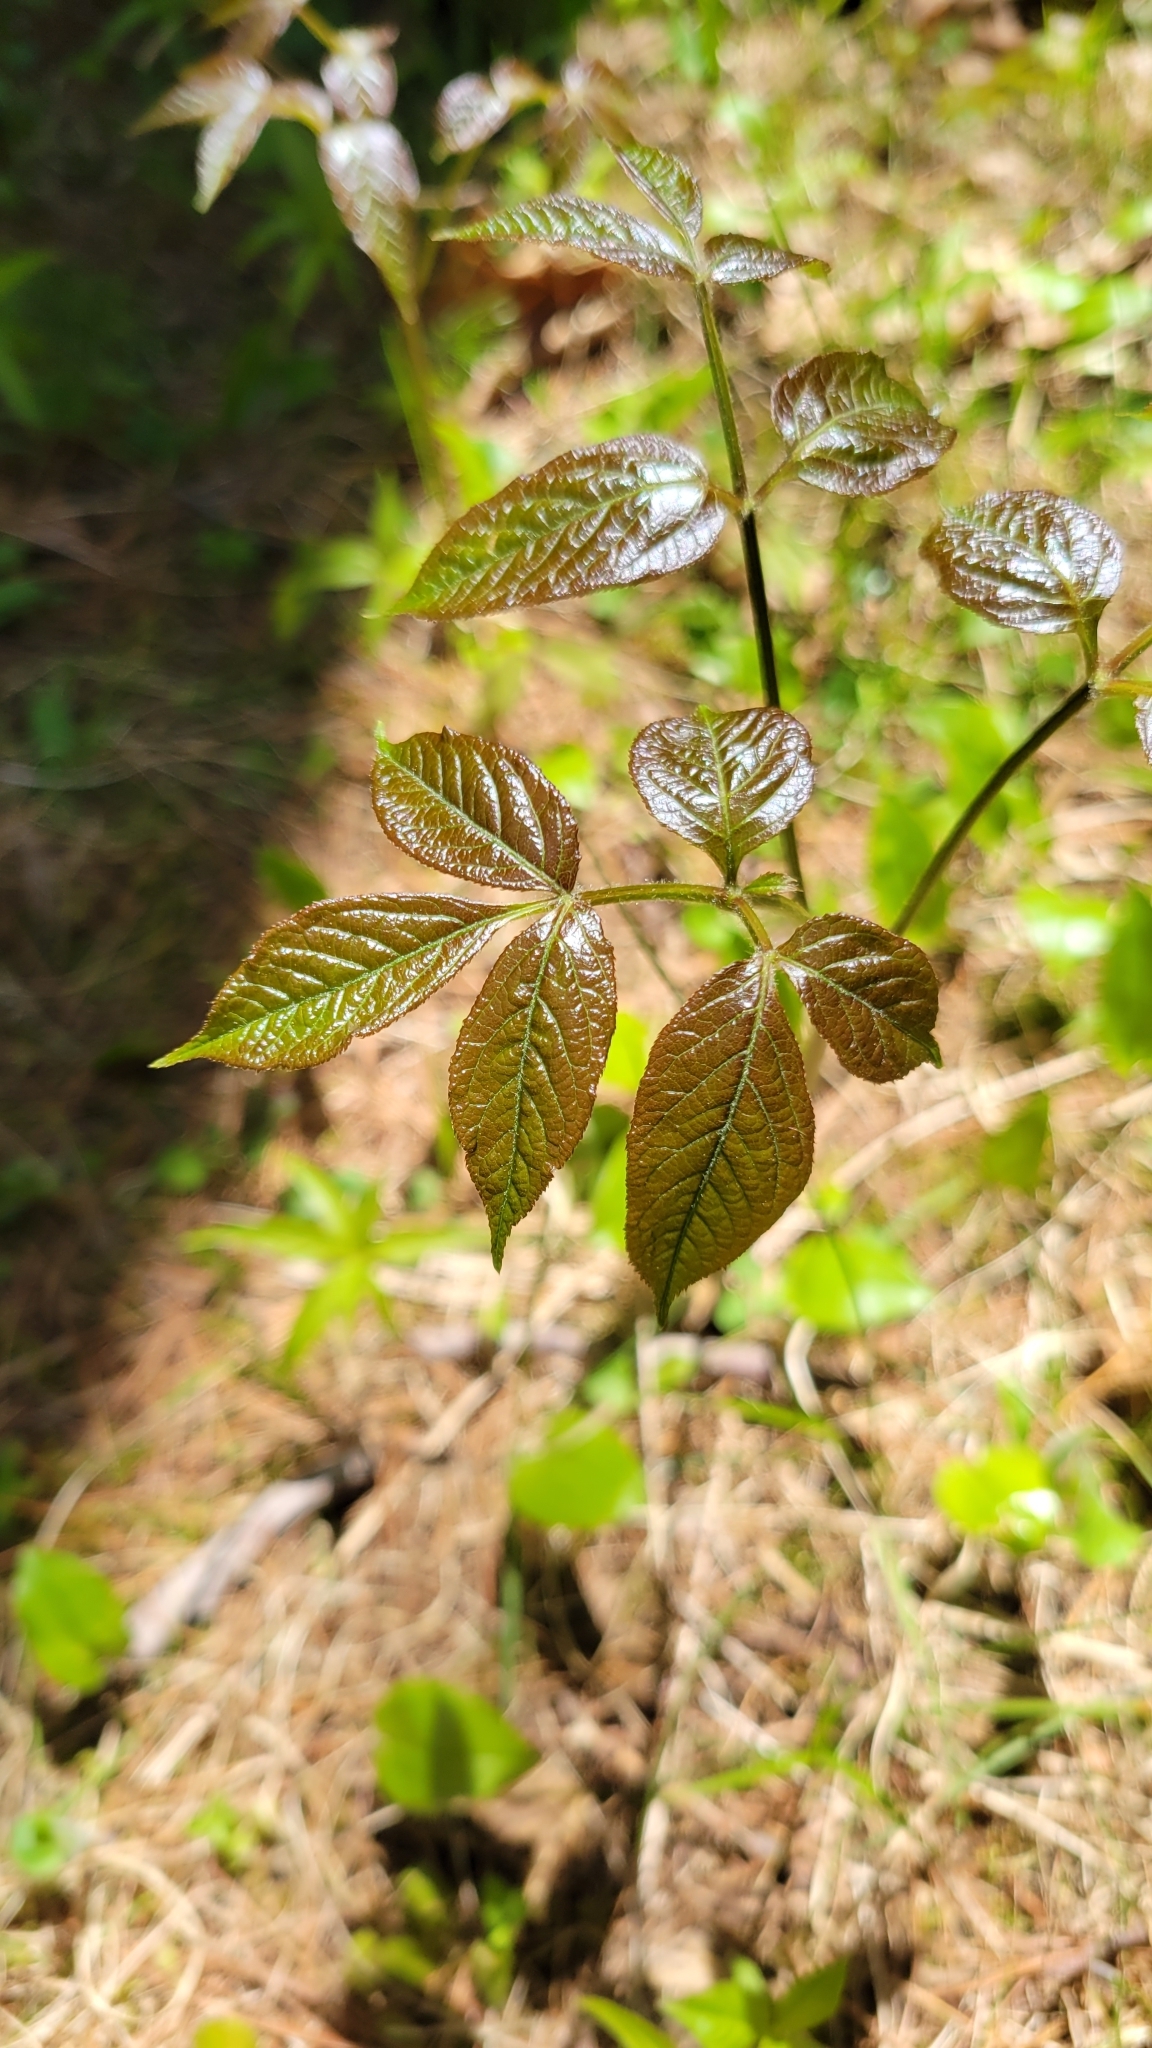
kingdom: Plantae
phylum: Tracheophyta
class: Magnoliopsida
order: Apiales
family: Araliaceae
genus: Aralia
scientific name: Aralia nudicaulis
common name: Wild sarsaparilla
